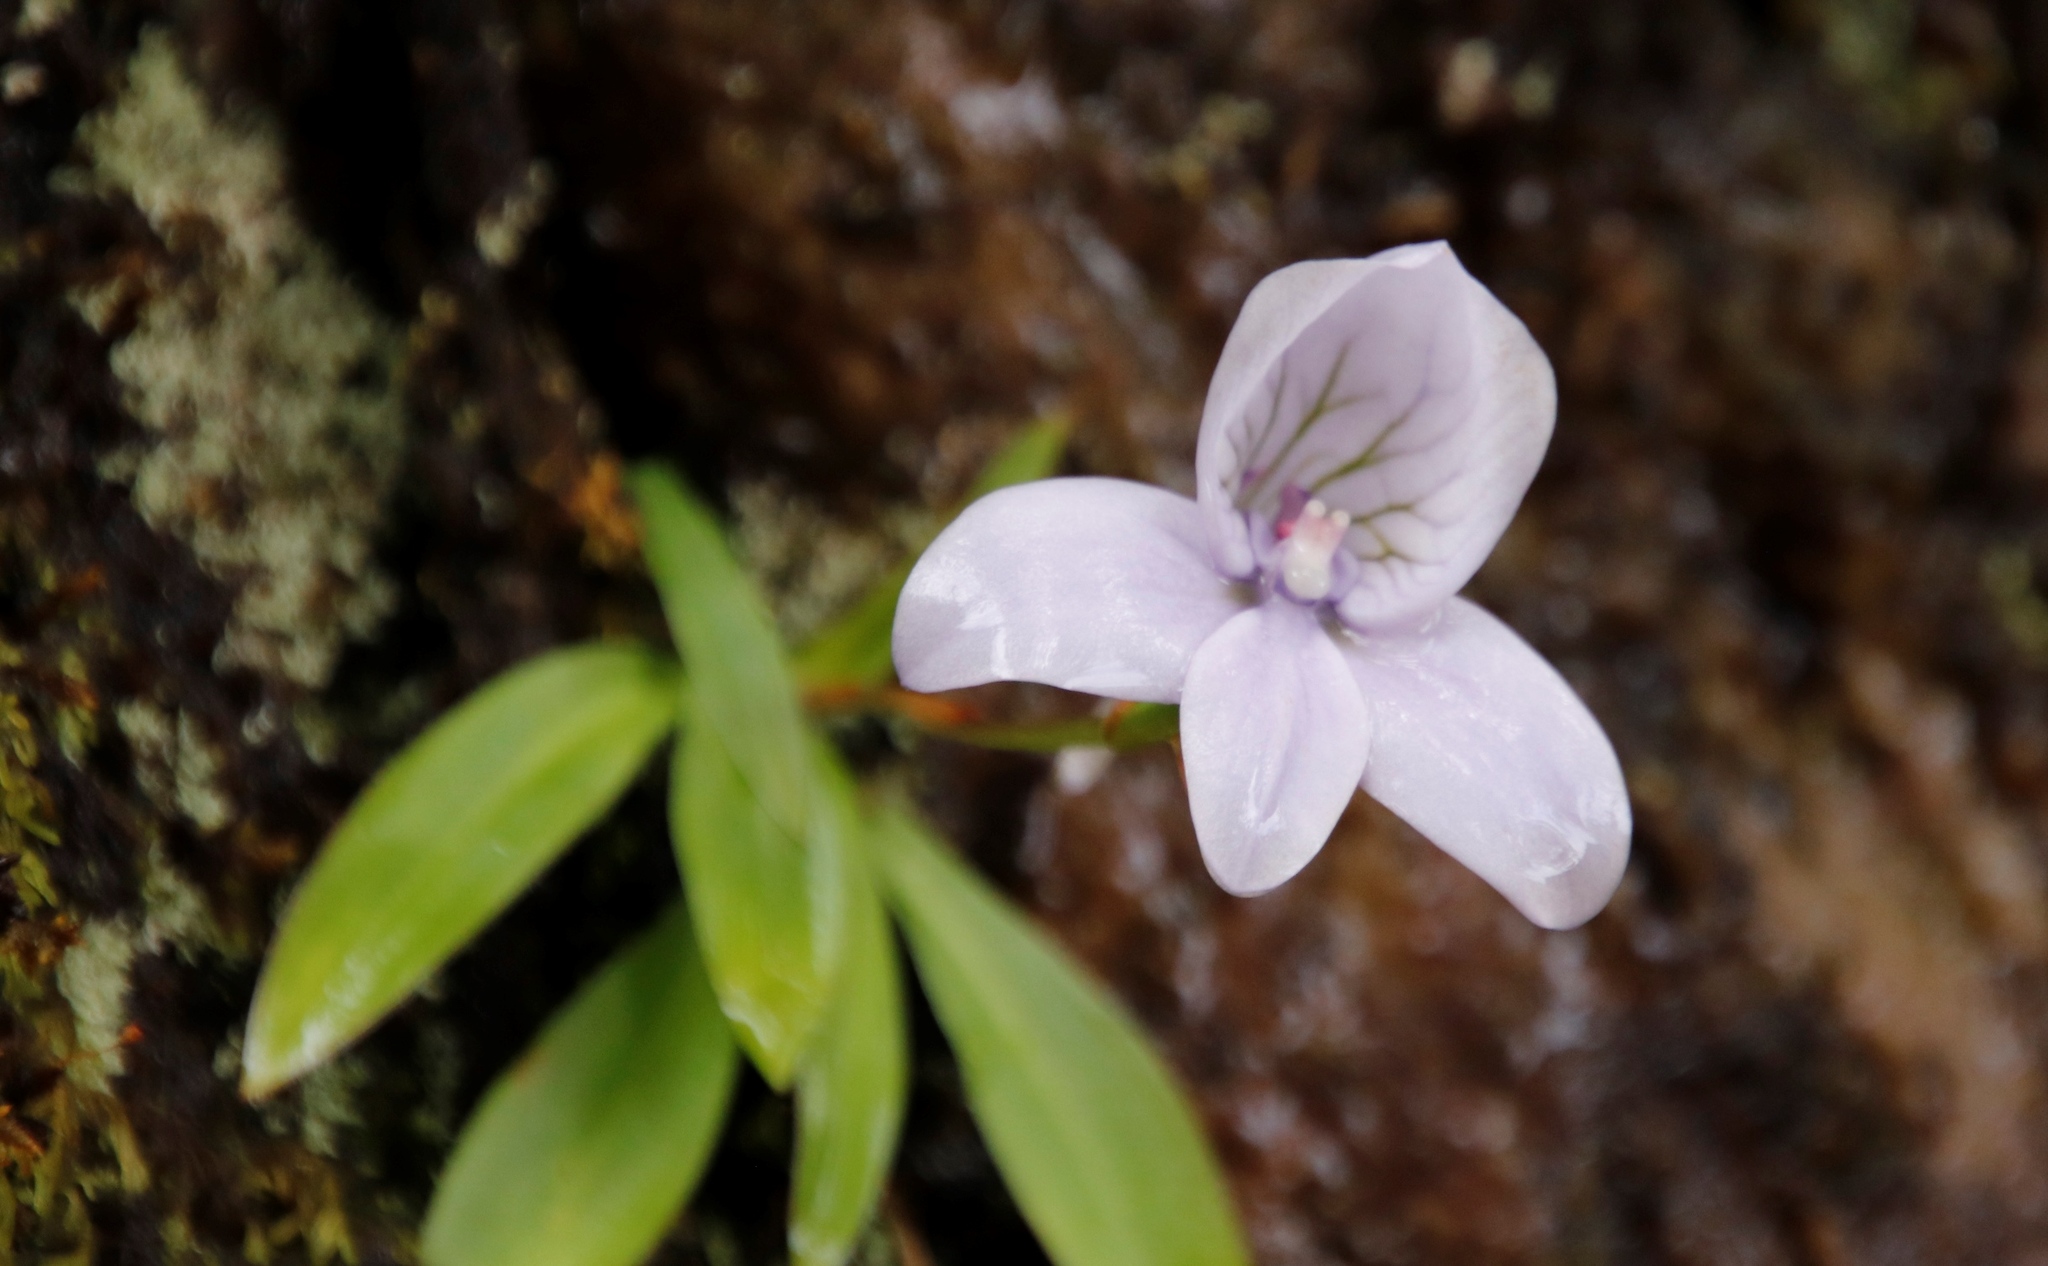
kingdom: Plantae
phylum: Tracheophyta
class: Liliopsida
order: Asparagales
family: Orchidaceae
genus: Disa
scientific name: Disa longicornu
